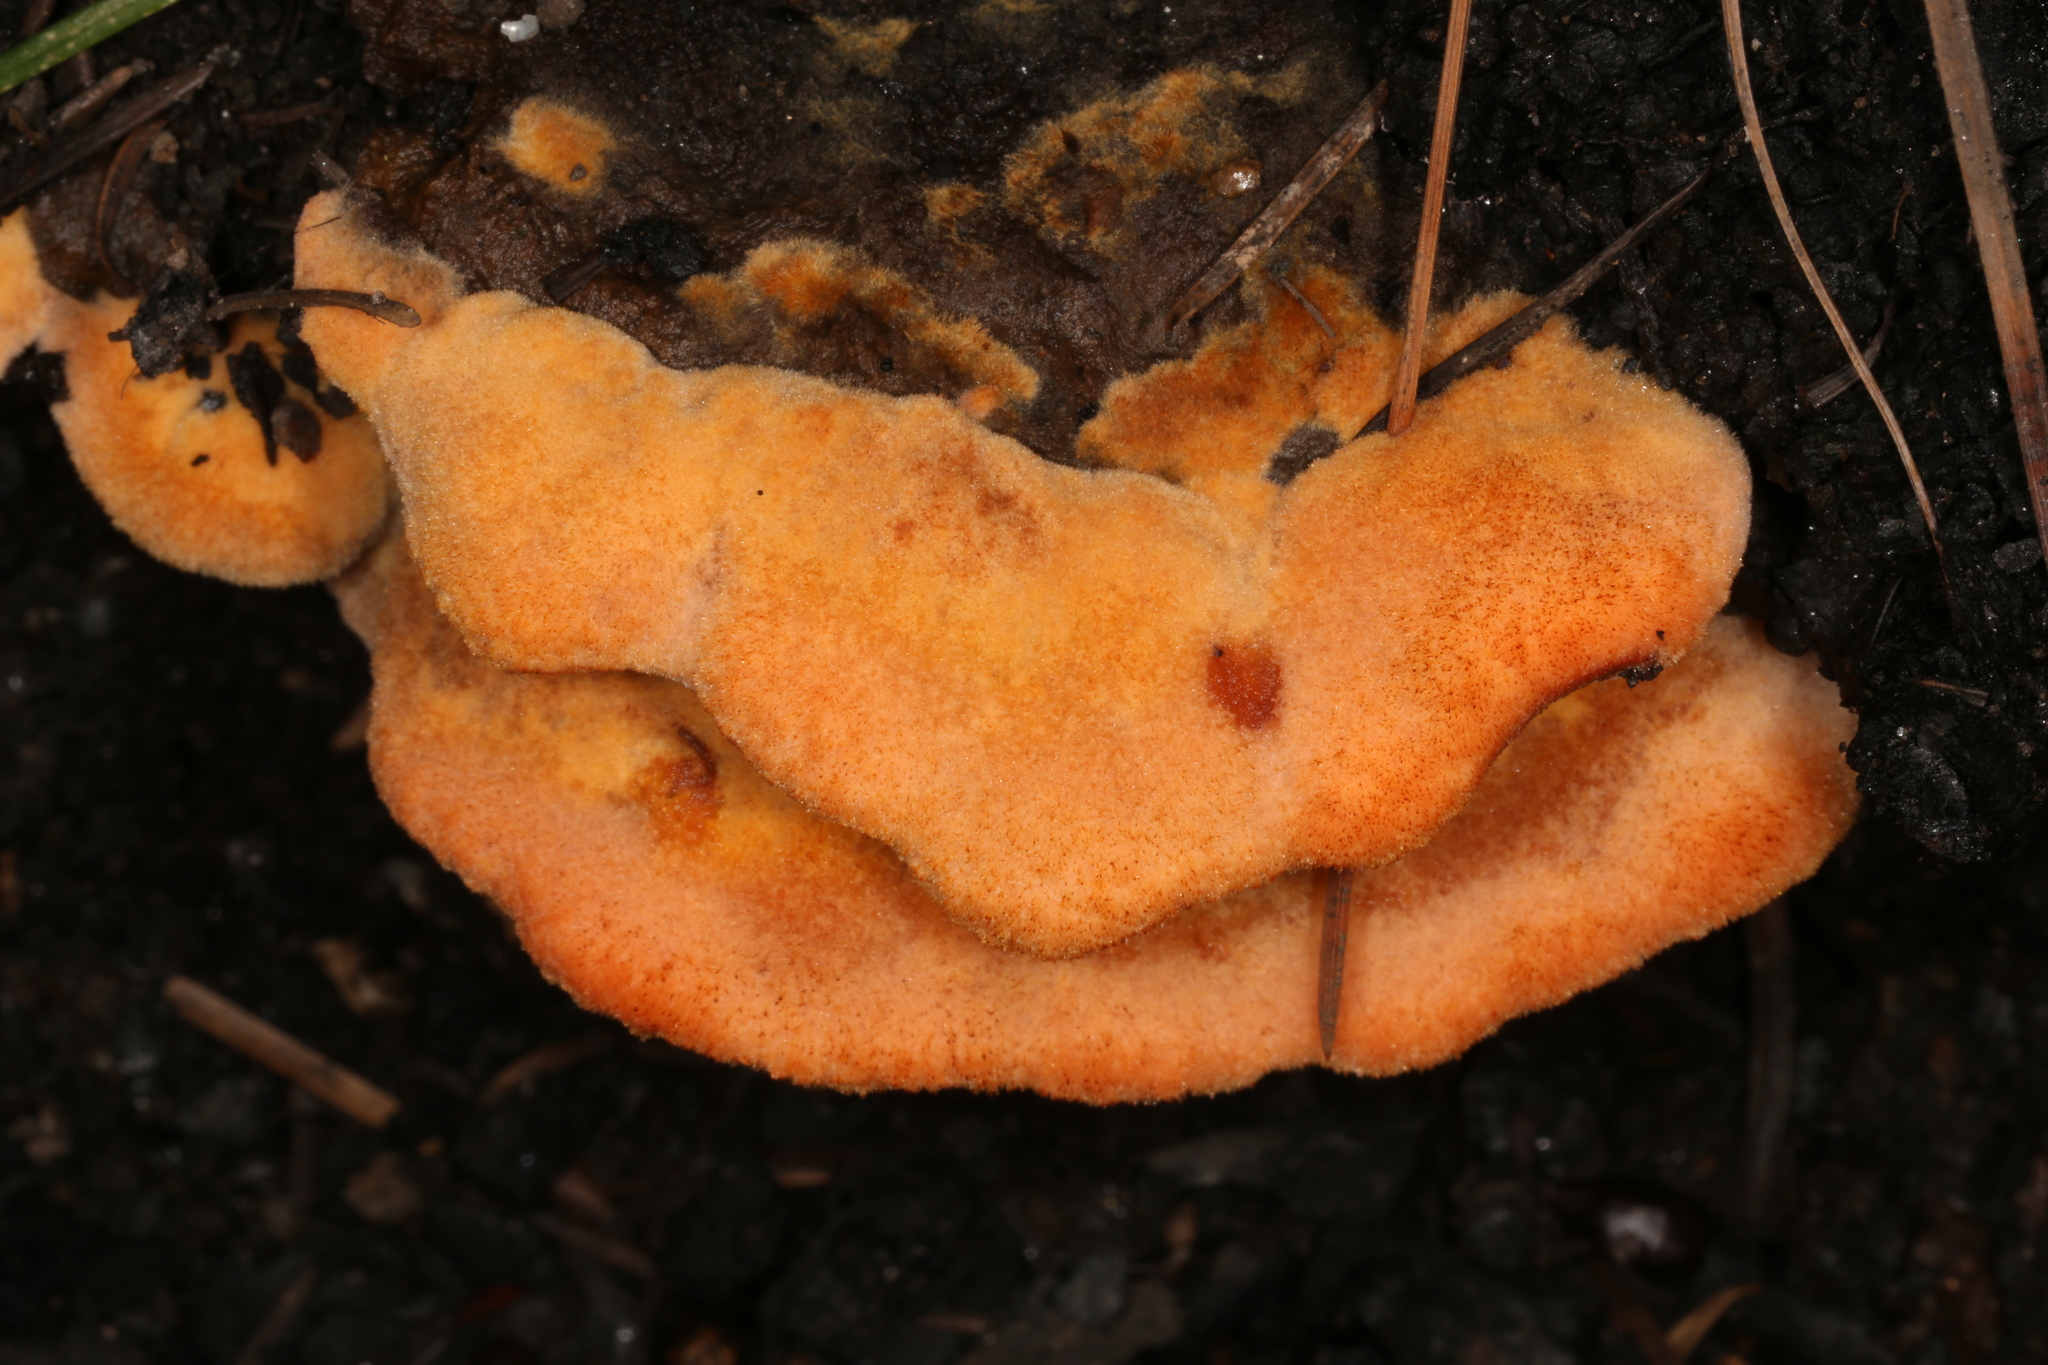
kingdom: Fungi
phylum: Basidiomycota
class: Agaricomycetes
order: Polyporales
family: Laetiporaceae
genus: Phaeolus
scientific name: Phaeolus schweinitzii
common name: Dyer's mazegill
